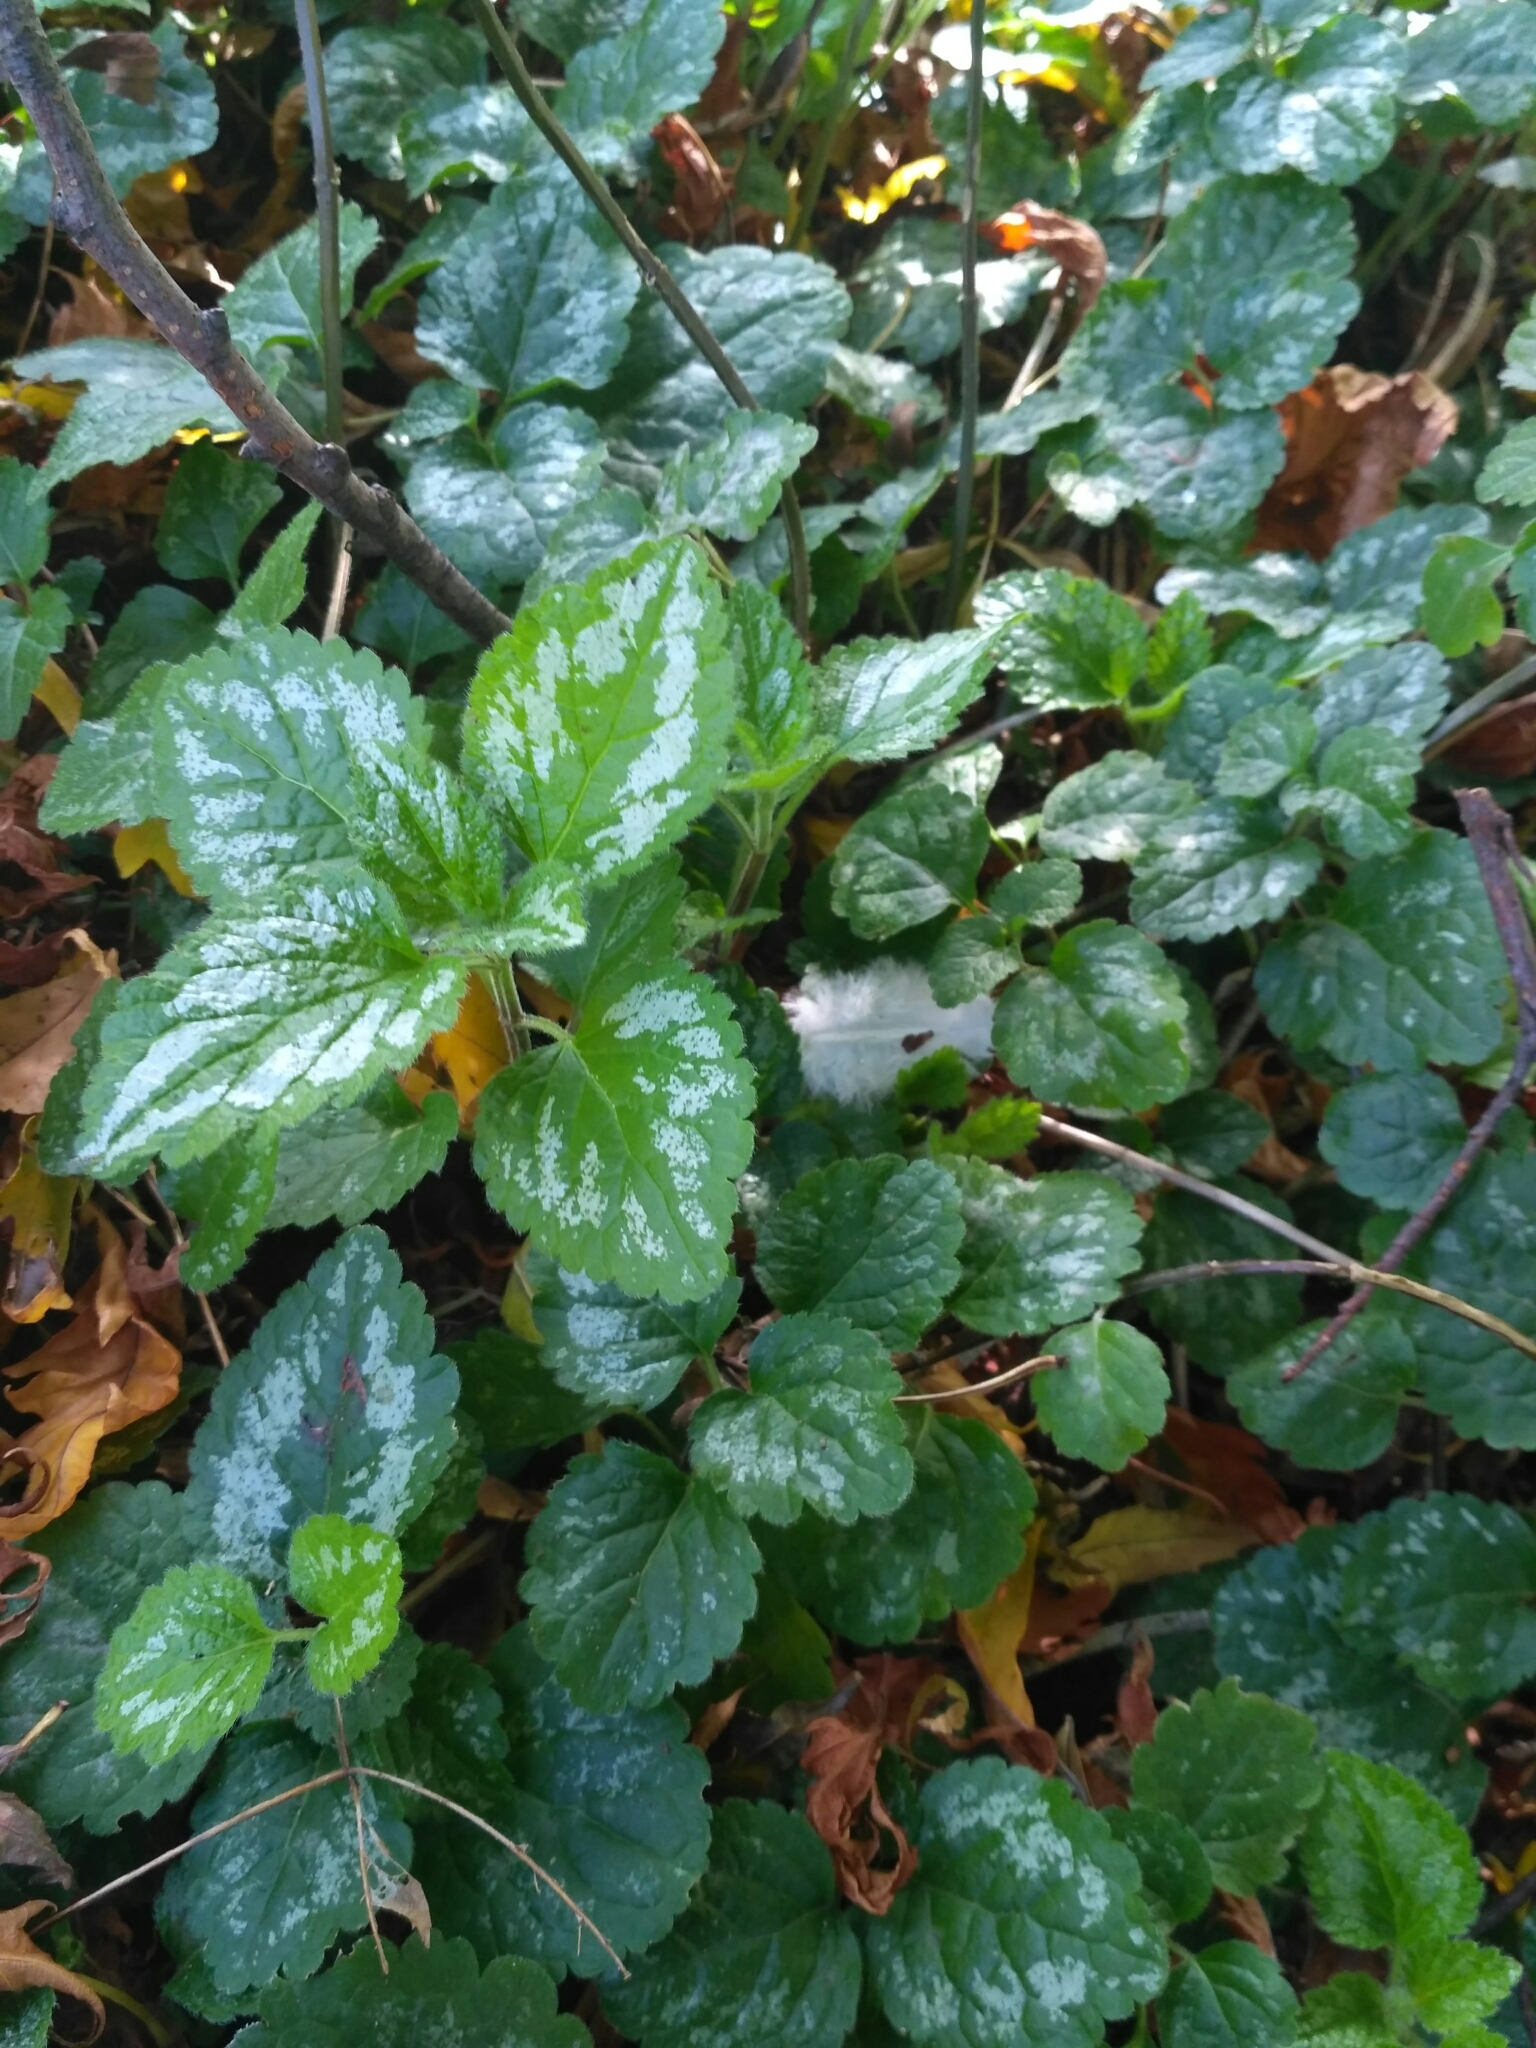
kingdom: Plantae
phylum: Tracheophyta
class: Magnoliopsida
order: Lamiales
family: Lamiaceae
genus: Lamium
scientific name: Lamium galeobdolon
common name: Yellow archangel
